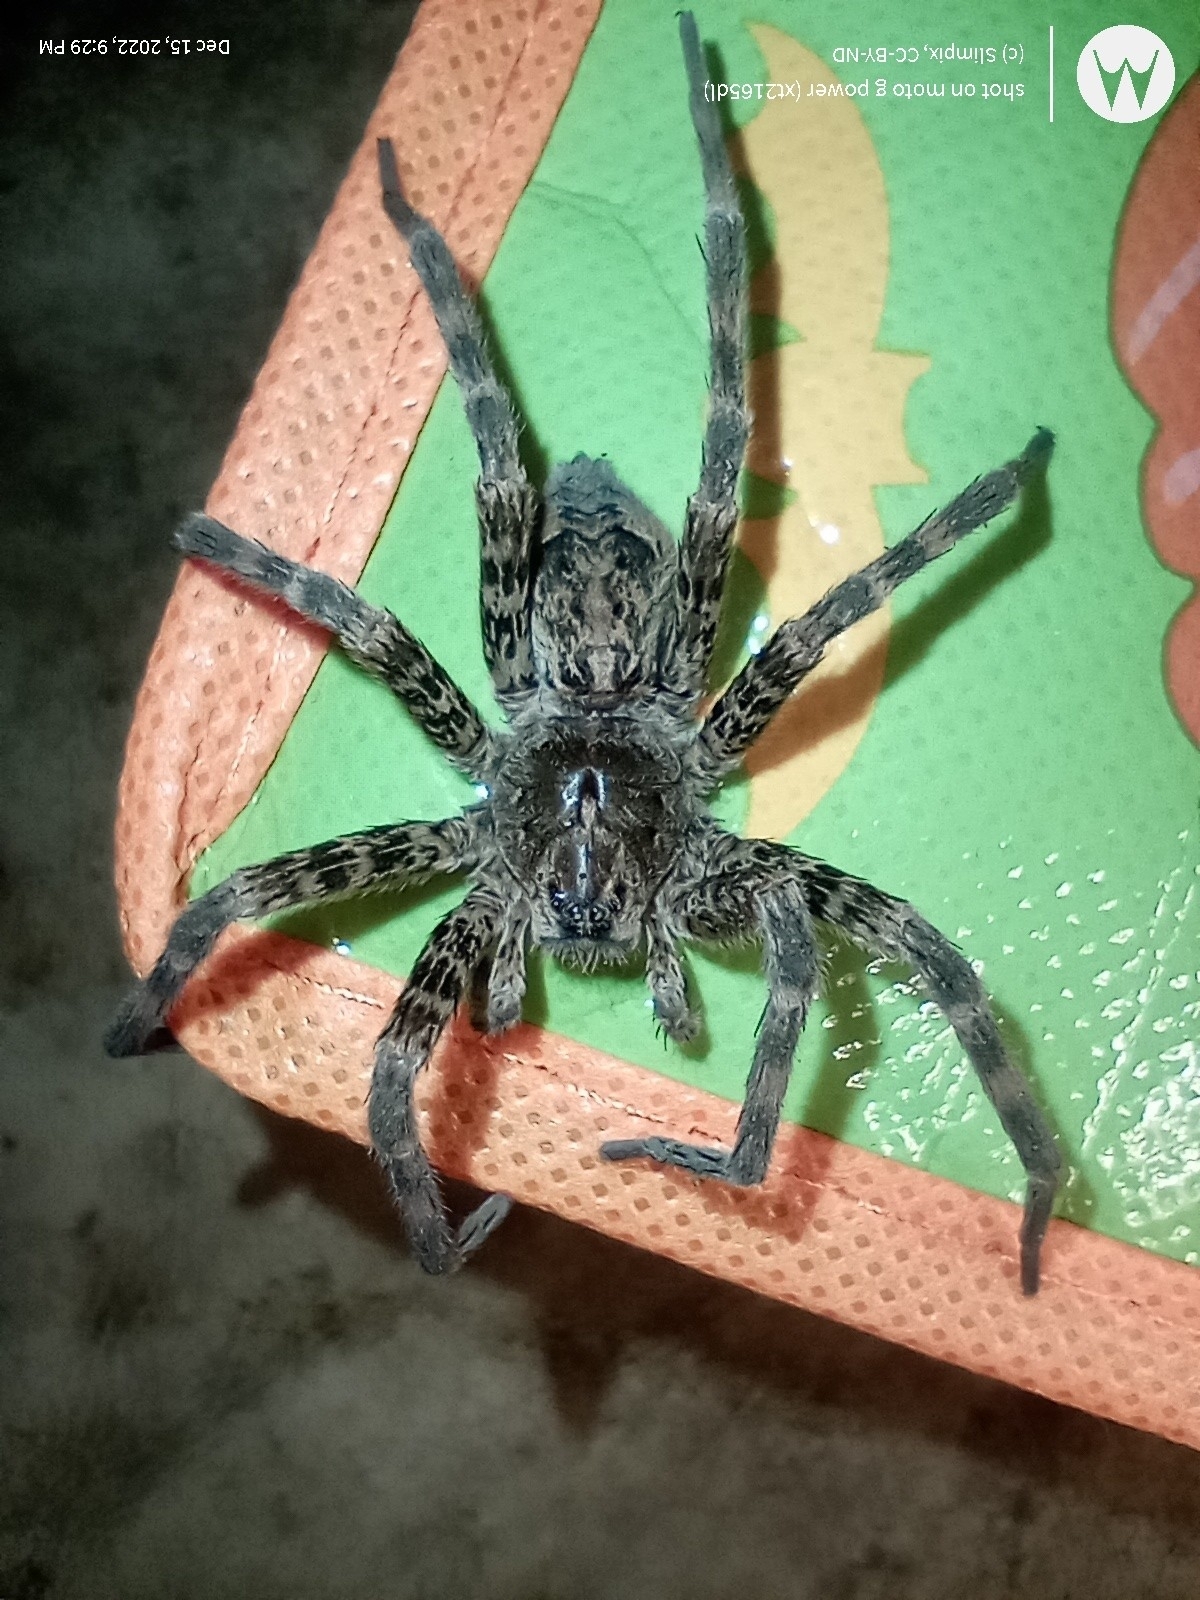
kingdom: Animalia
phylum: Arthropoda
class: Arachnida
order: Araneae
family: Pisauridae
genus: Dolomedes
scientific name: Dolomedes tenebrosus
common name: Dark fishing spider
